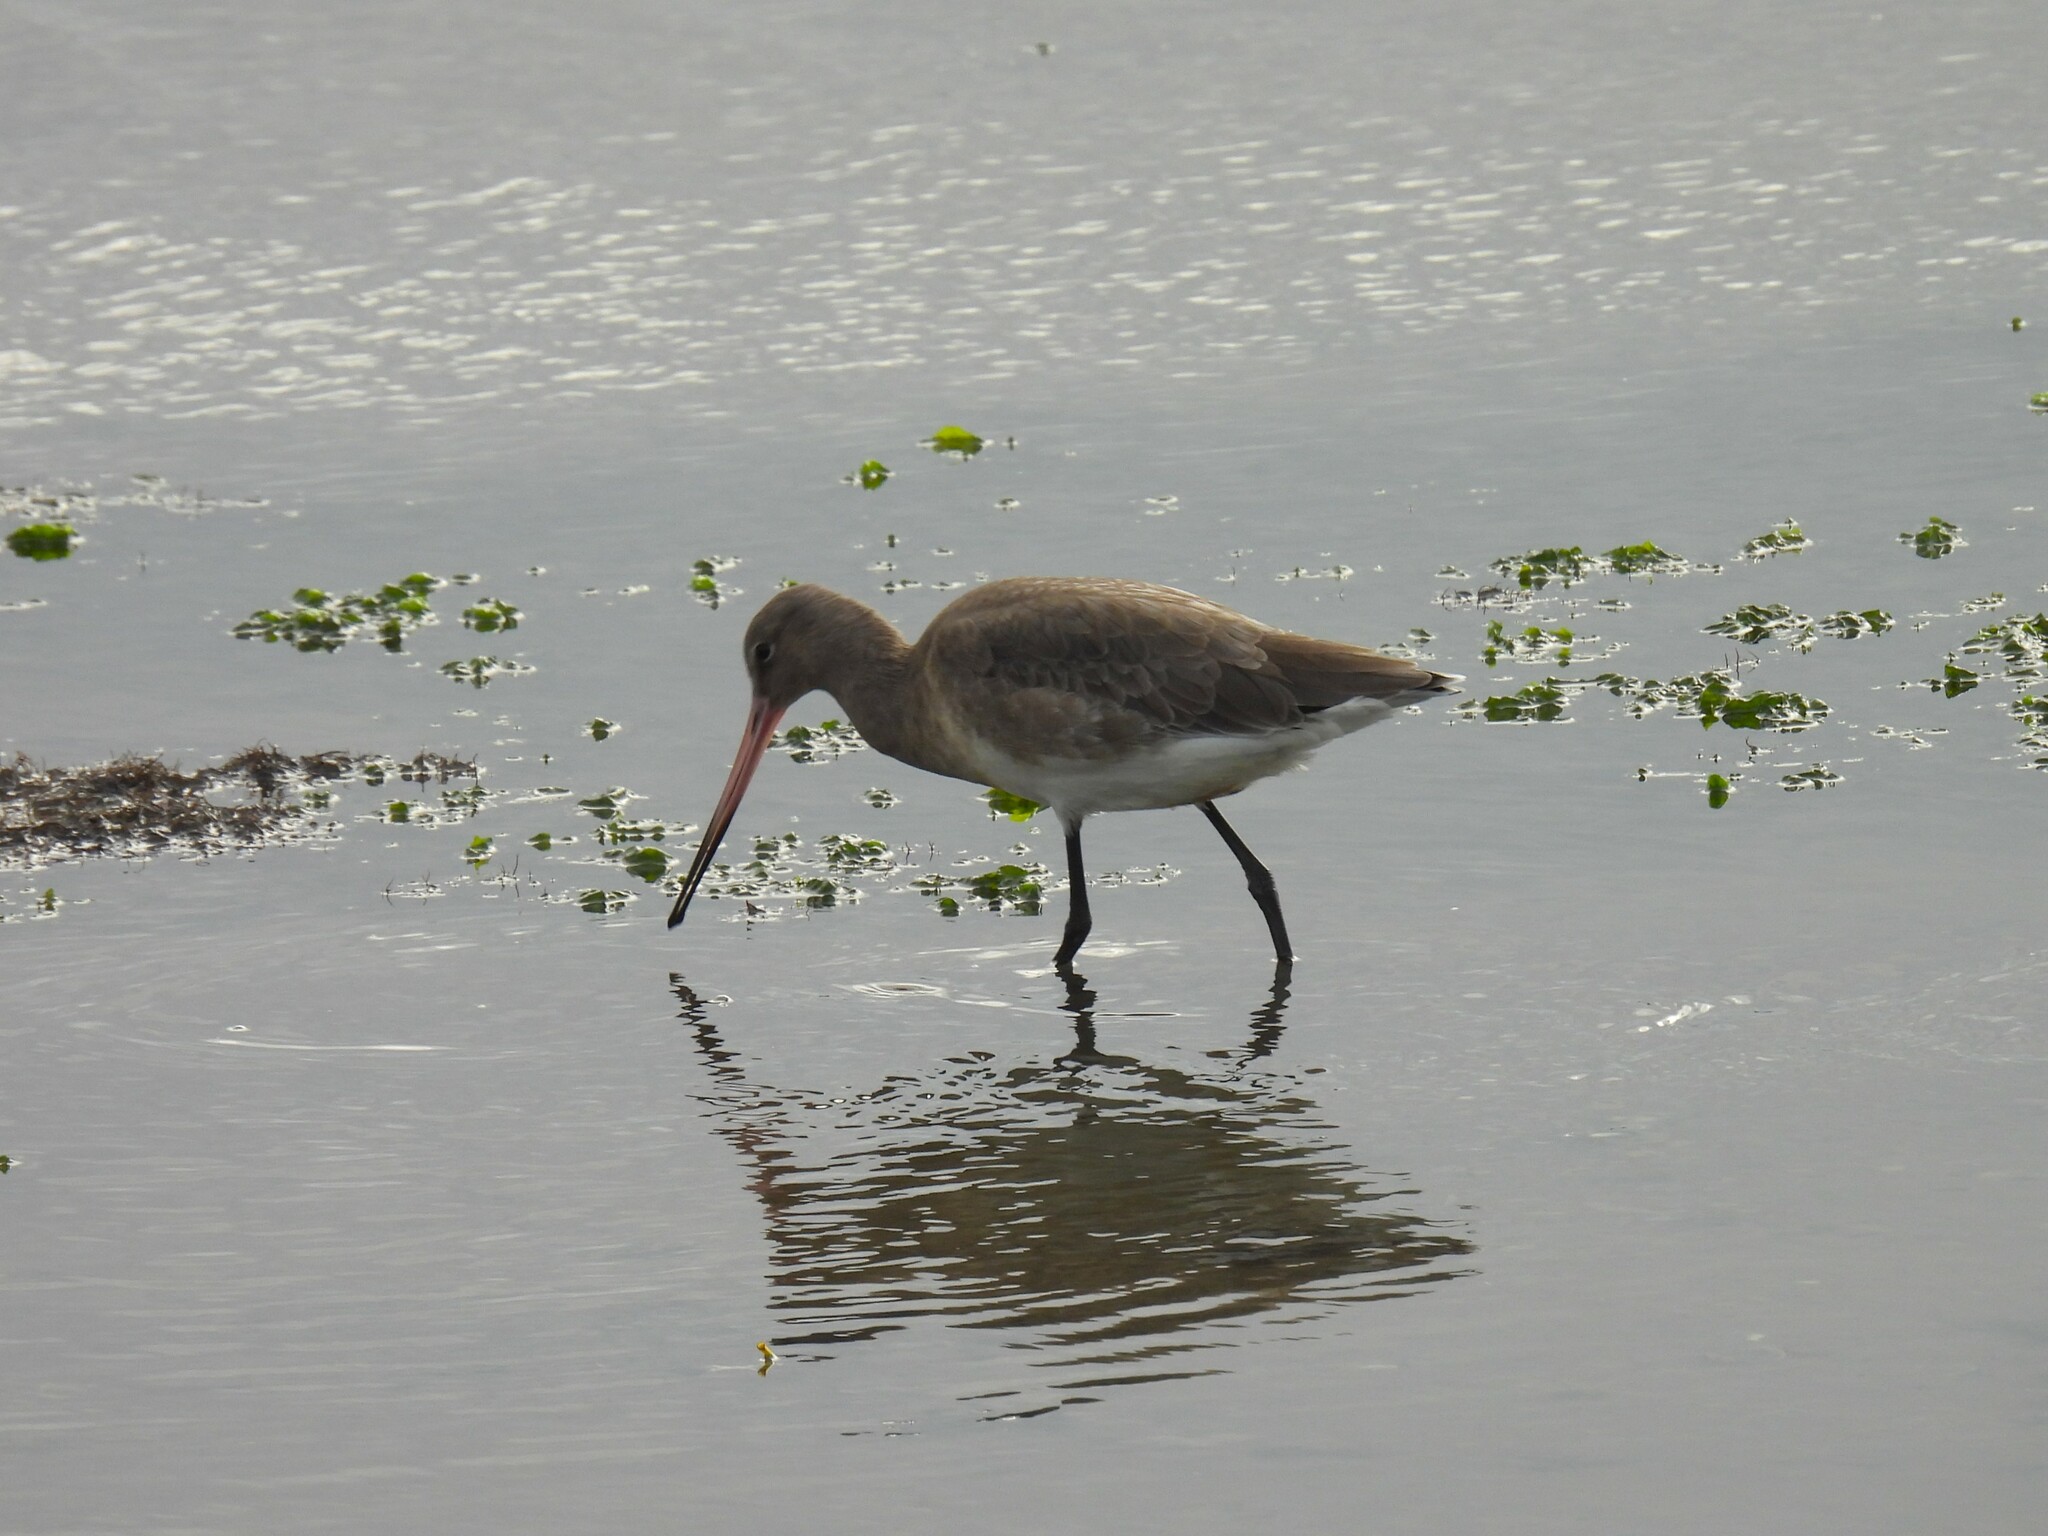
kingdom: Animalia
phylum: Chordata
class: Aves
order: Charadriiformes
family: Scolopacidae
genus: Limosa
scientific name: Limosa limosa
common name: Black-tailed godwit
